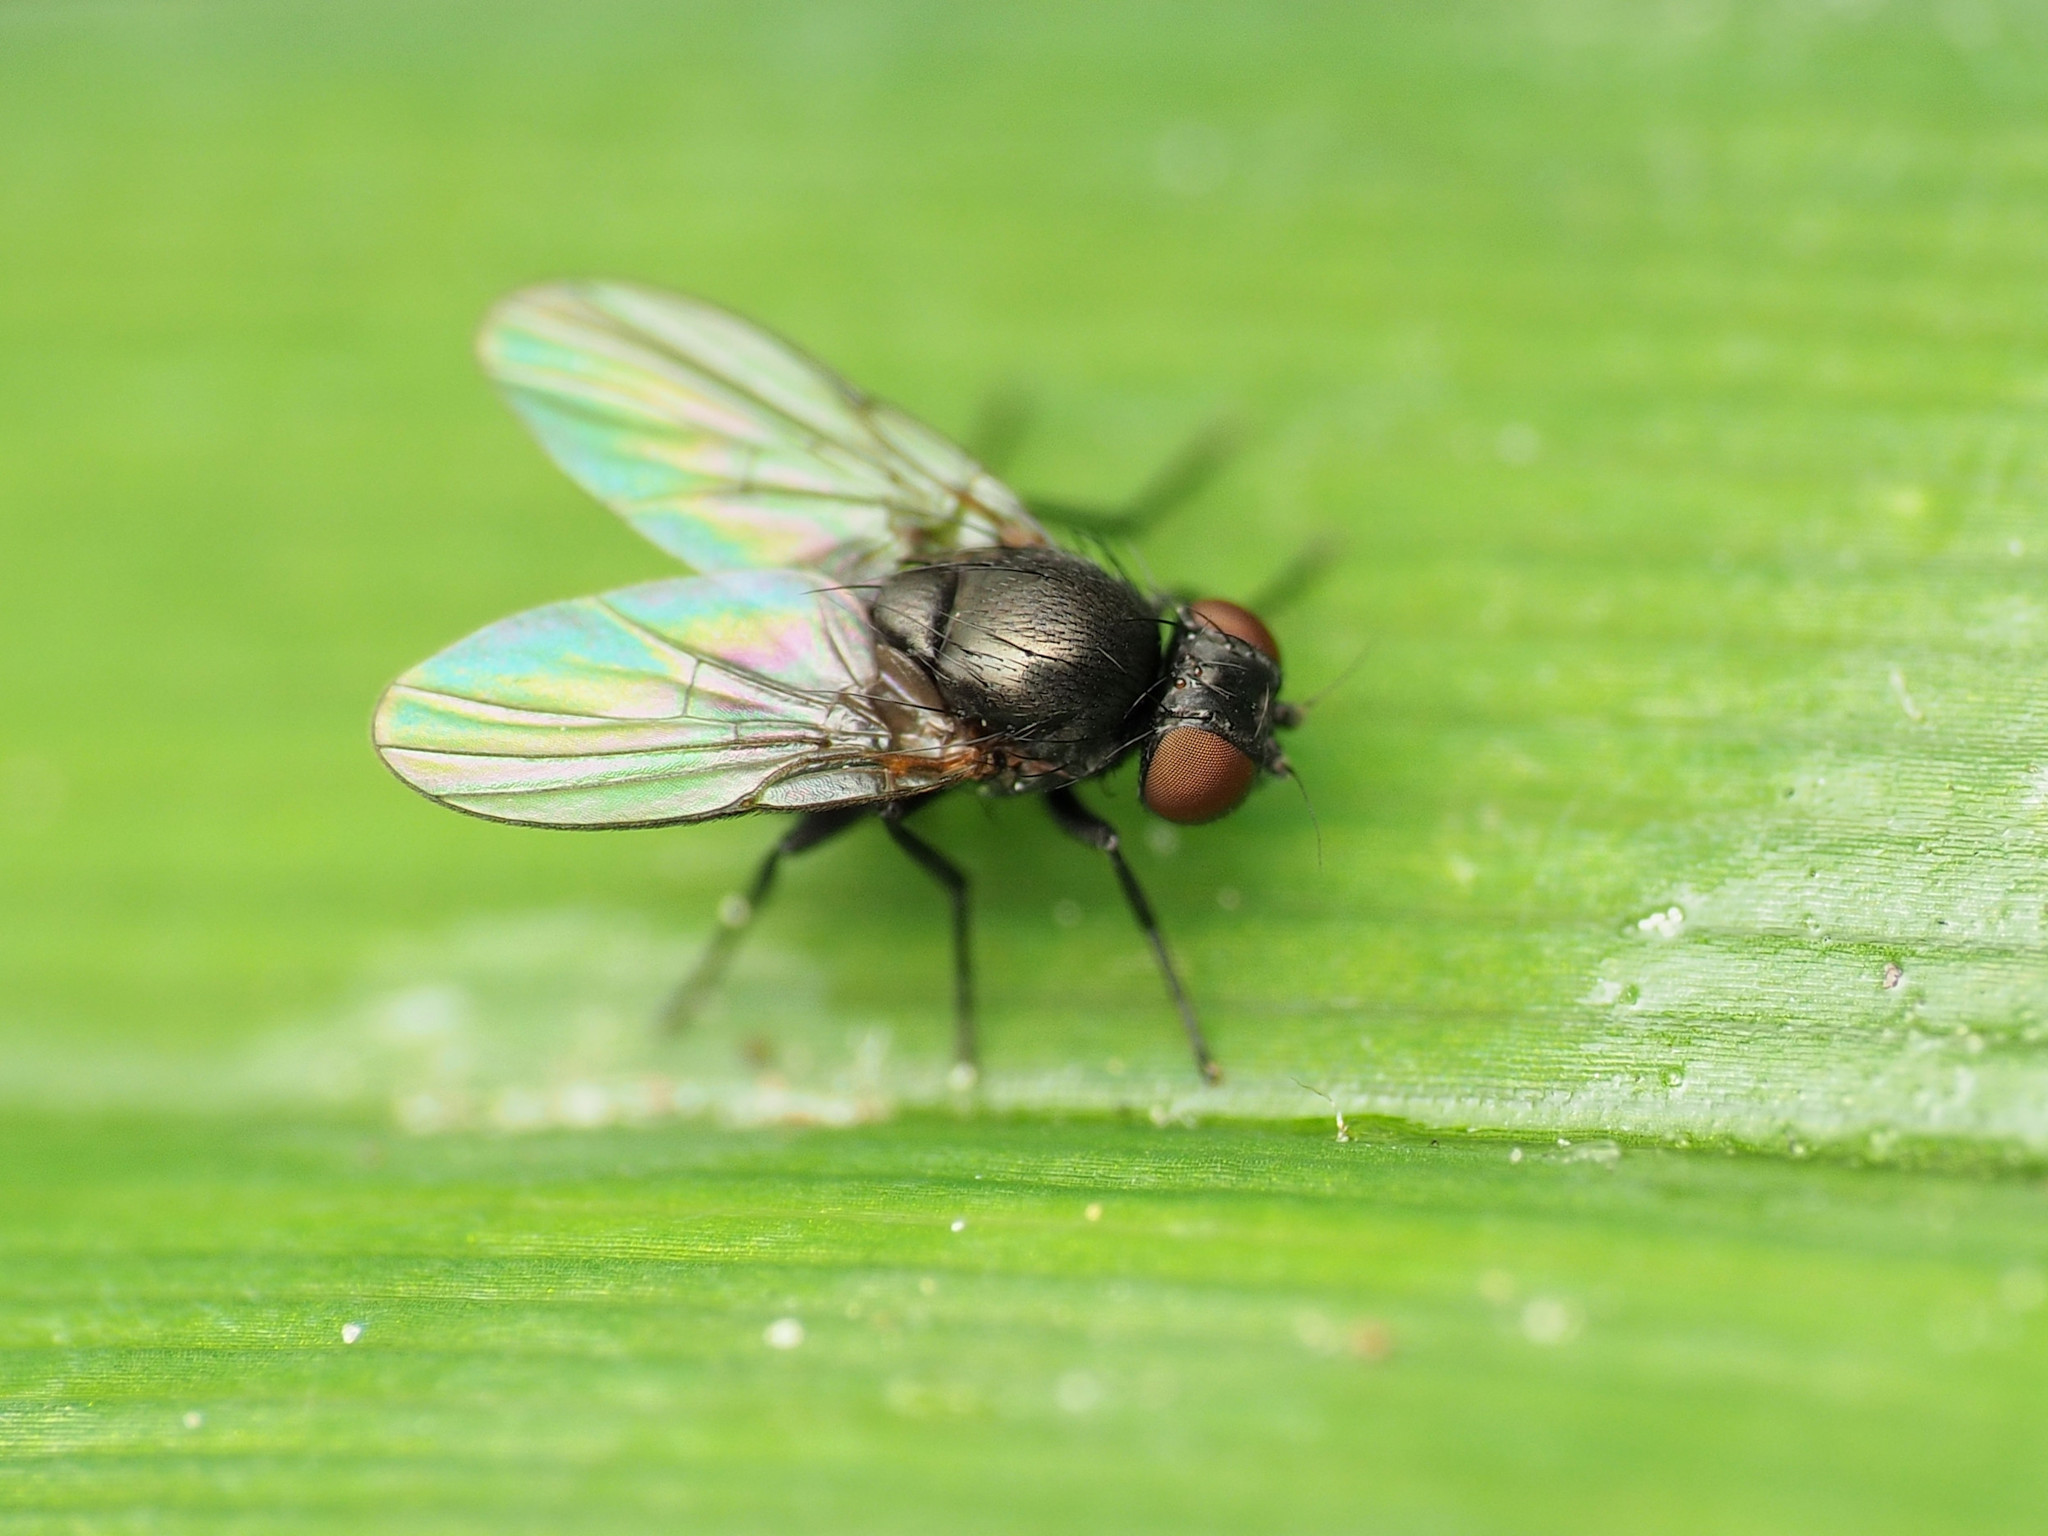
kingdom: Animalia
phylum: Arthropoda
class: Insecta
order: Diptera
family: Agromyzidae
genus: Ophiomyia
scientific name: Ophiomyia kwansonis
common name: Daylily leafminer
